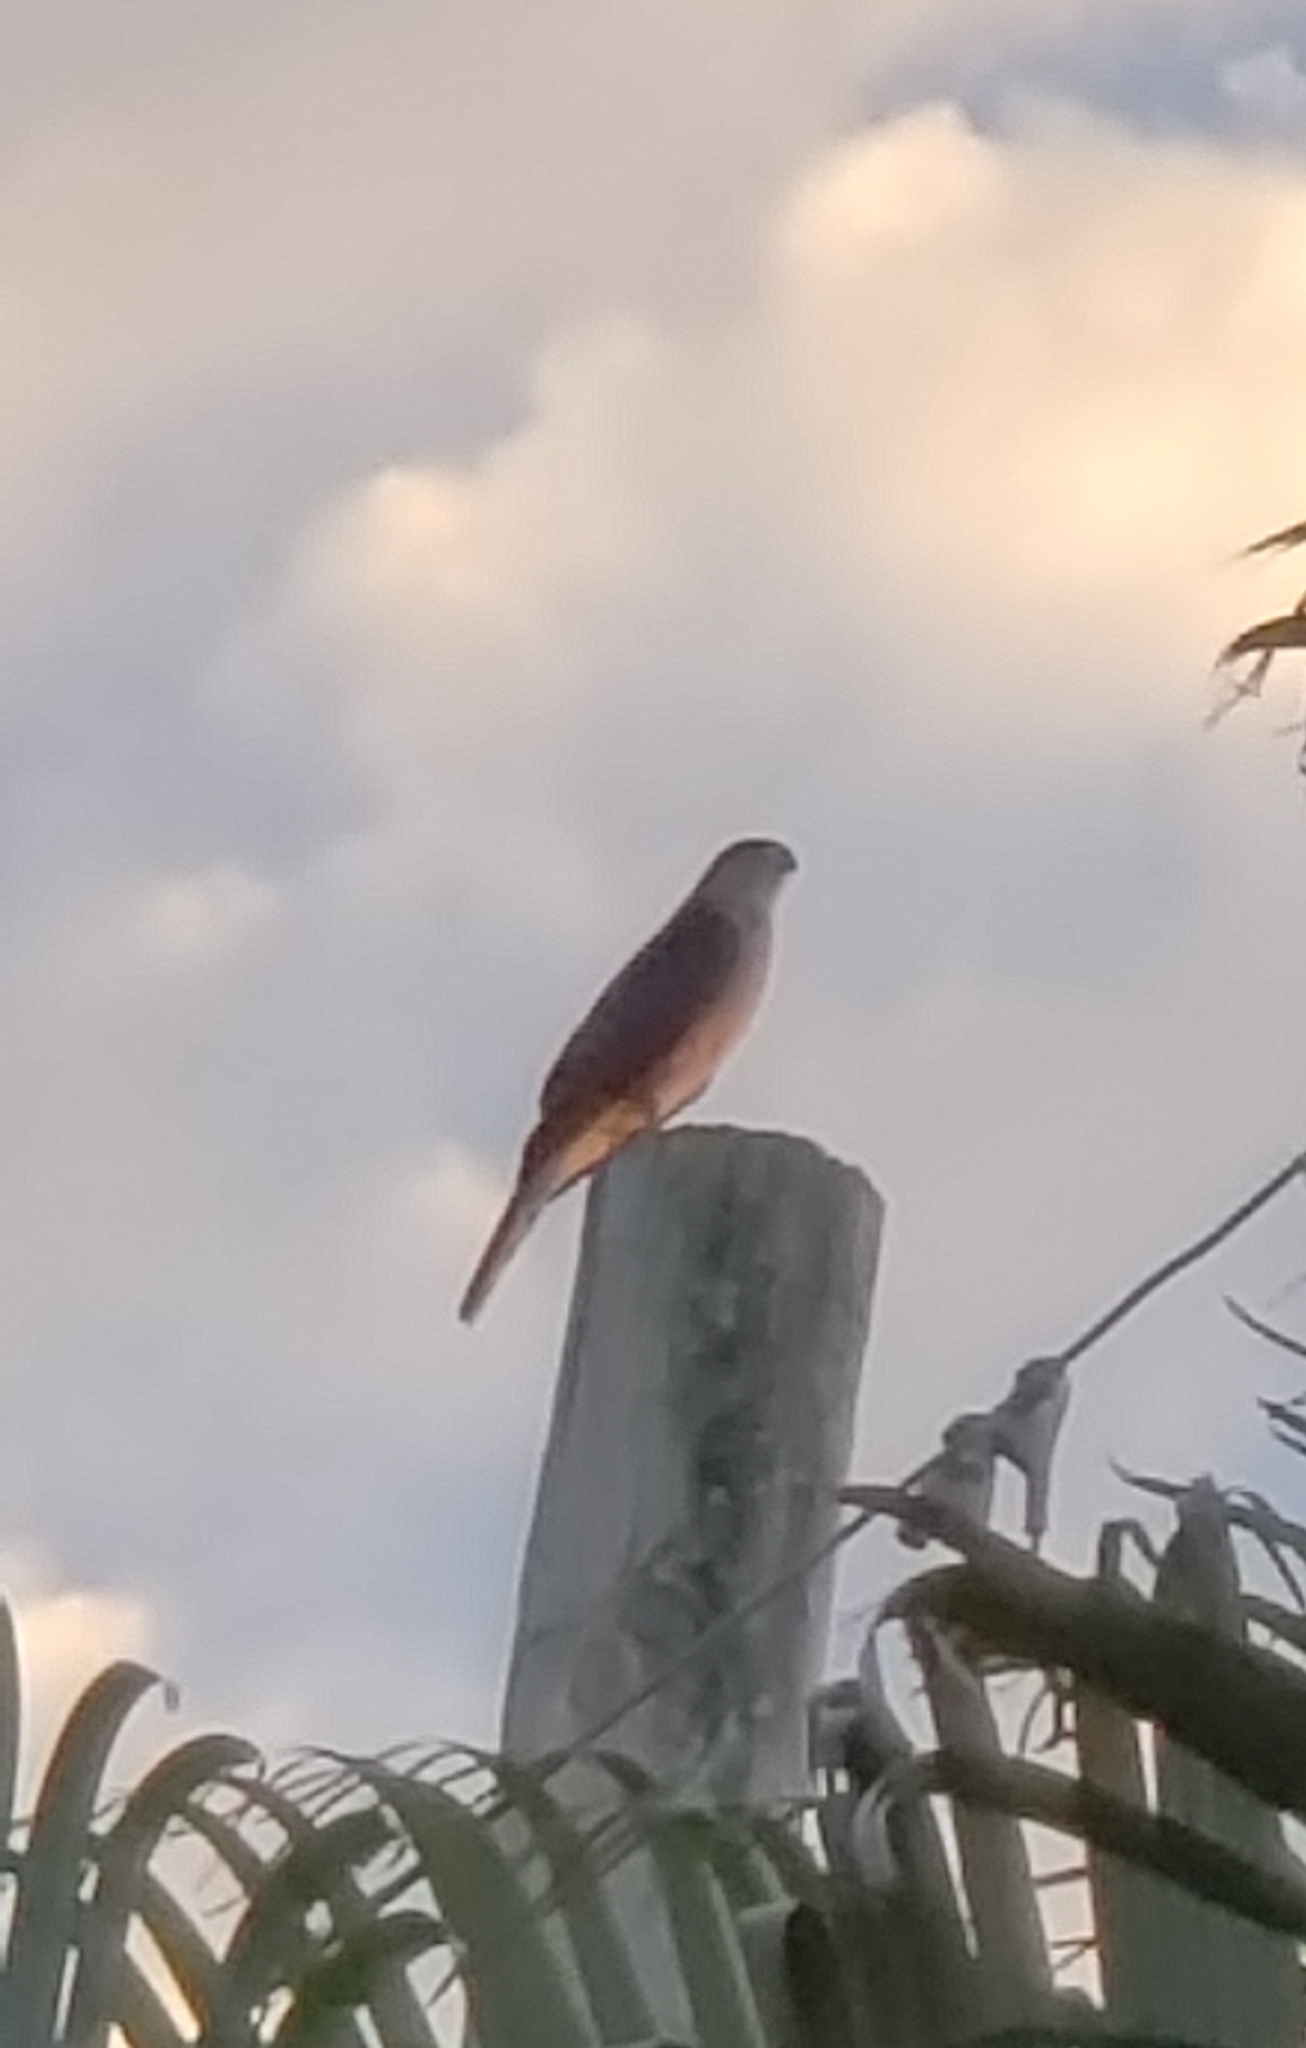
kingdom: Animalia
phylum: Chordata
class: Aves
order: Accipitriformes
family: Accipitridae
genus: Accipiter
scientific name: Accipiter cooperii
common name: Cooper's hawk
